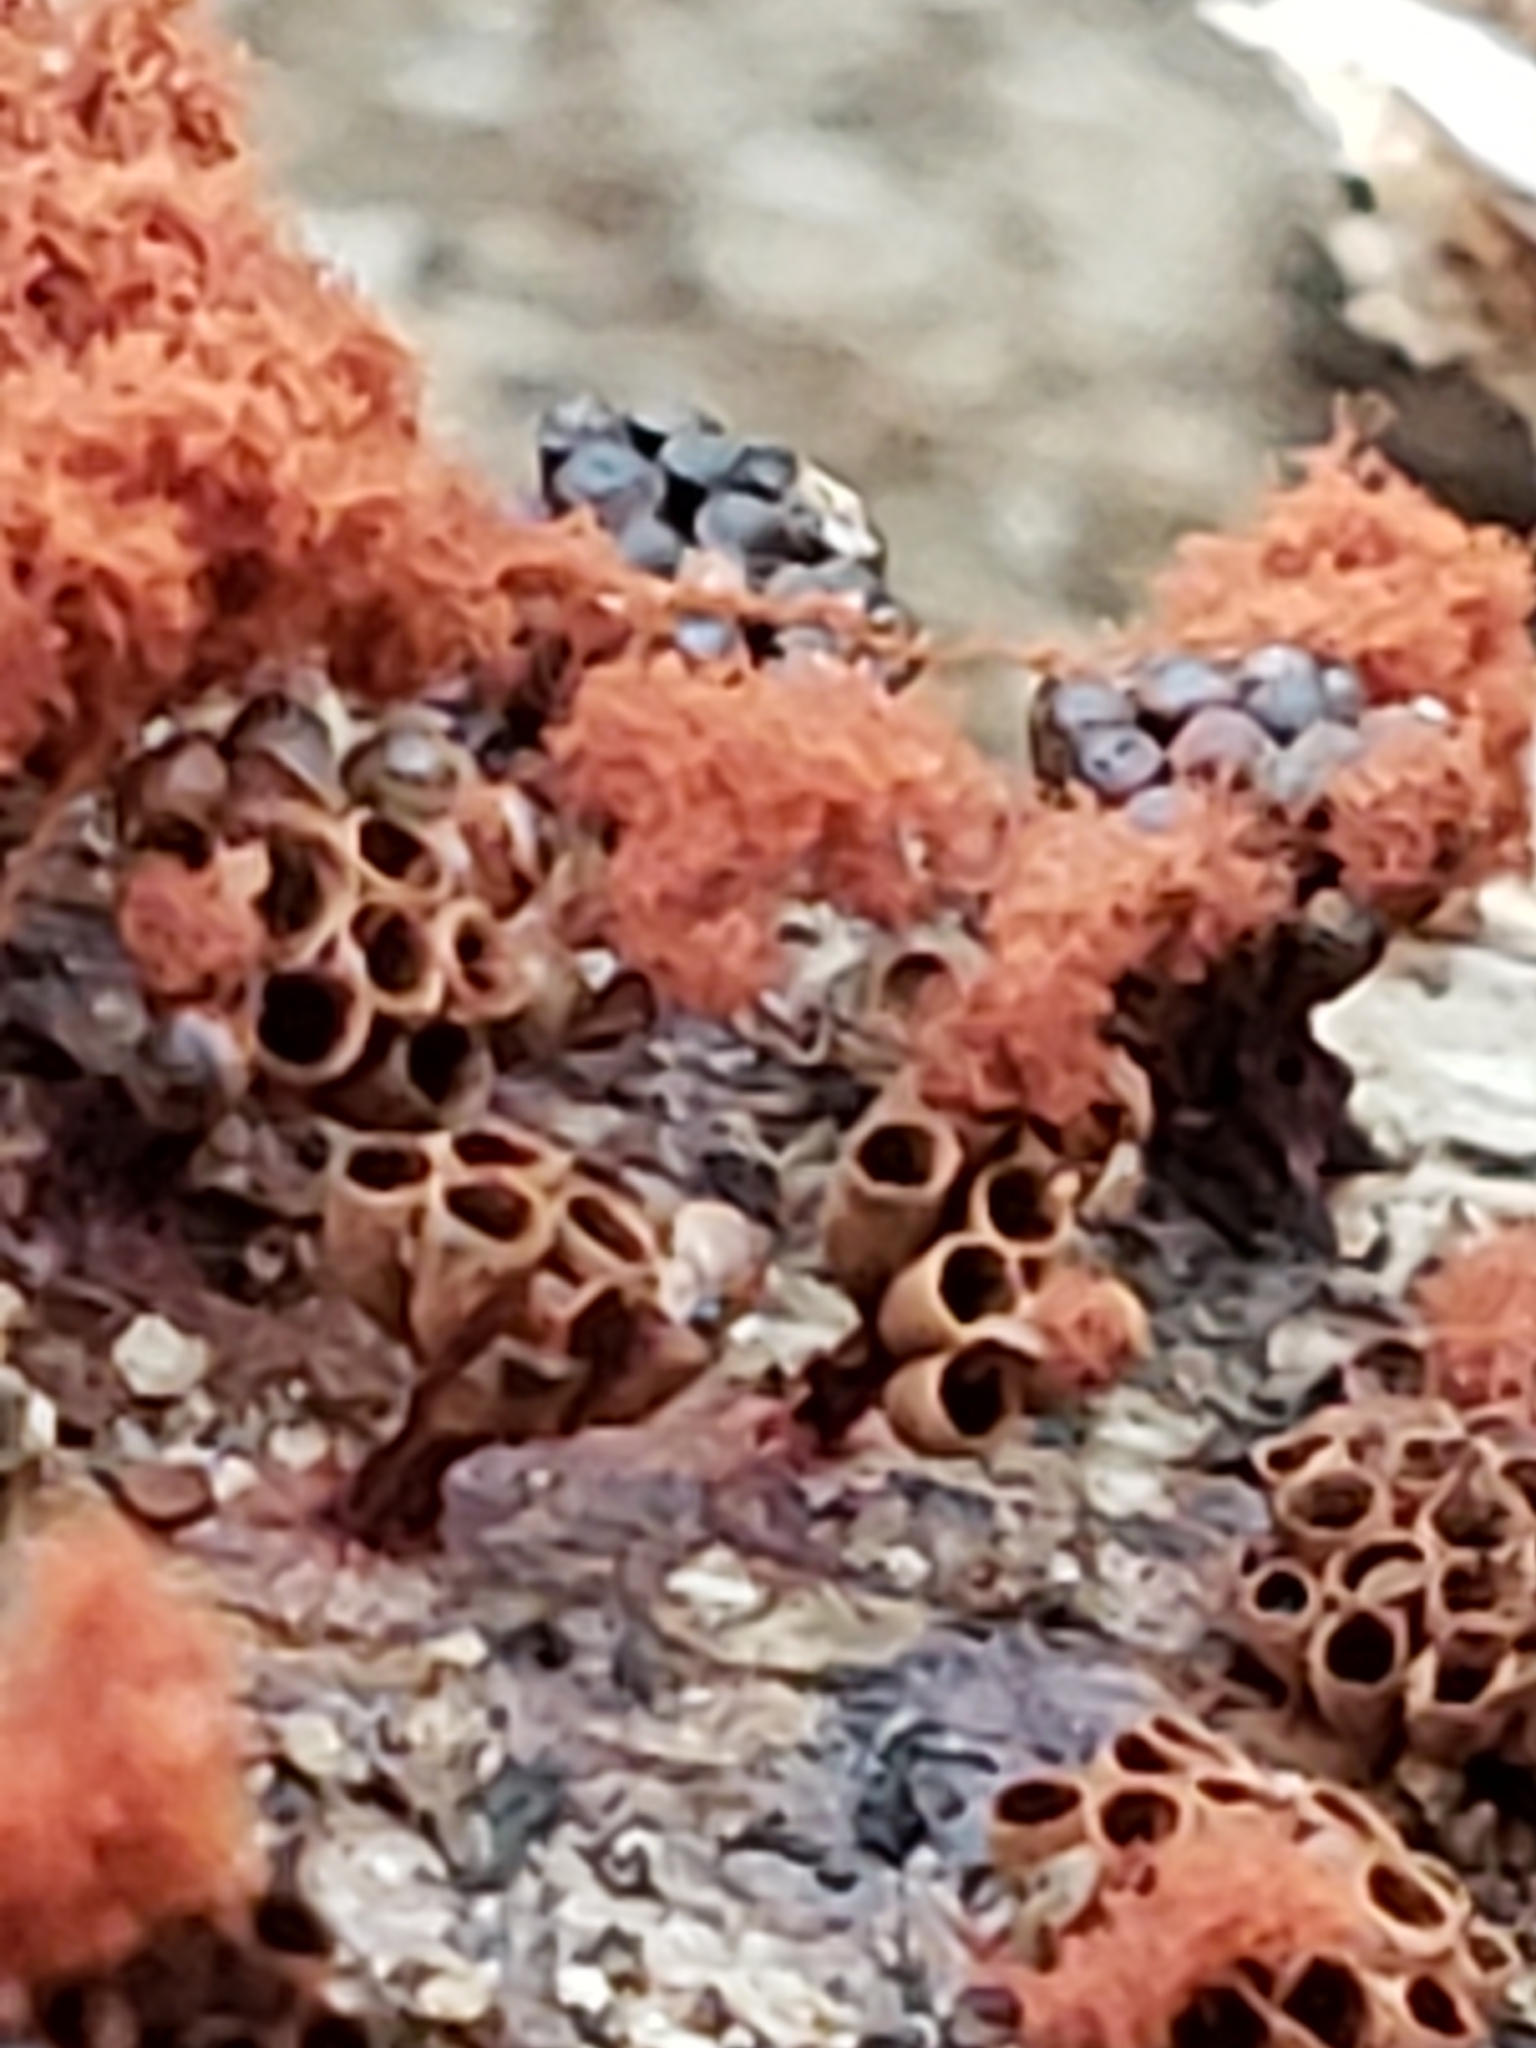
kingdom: Protozoa
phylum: Mycetozoa
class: Myxomycetes
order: Trichiales
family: Trichiaceae
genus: Metatrichia
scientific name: Metatrichia vesparia
